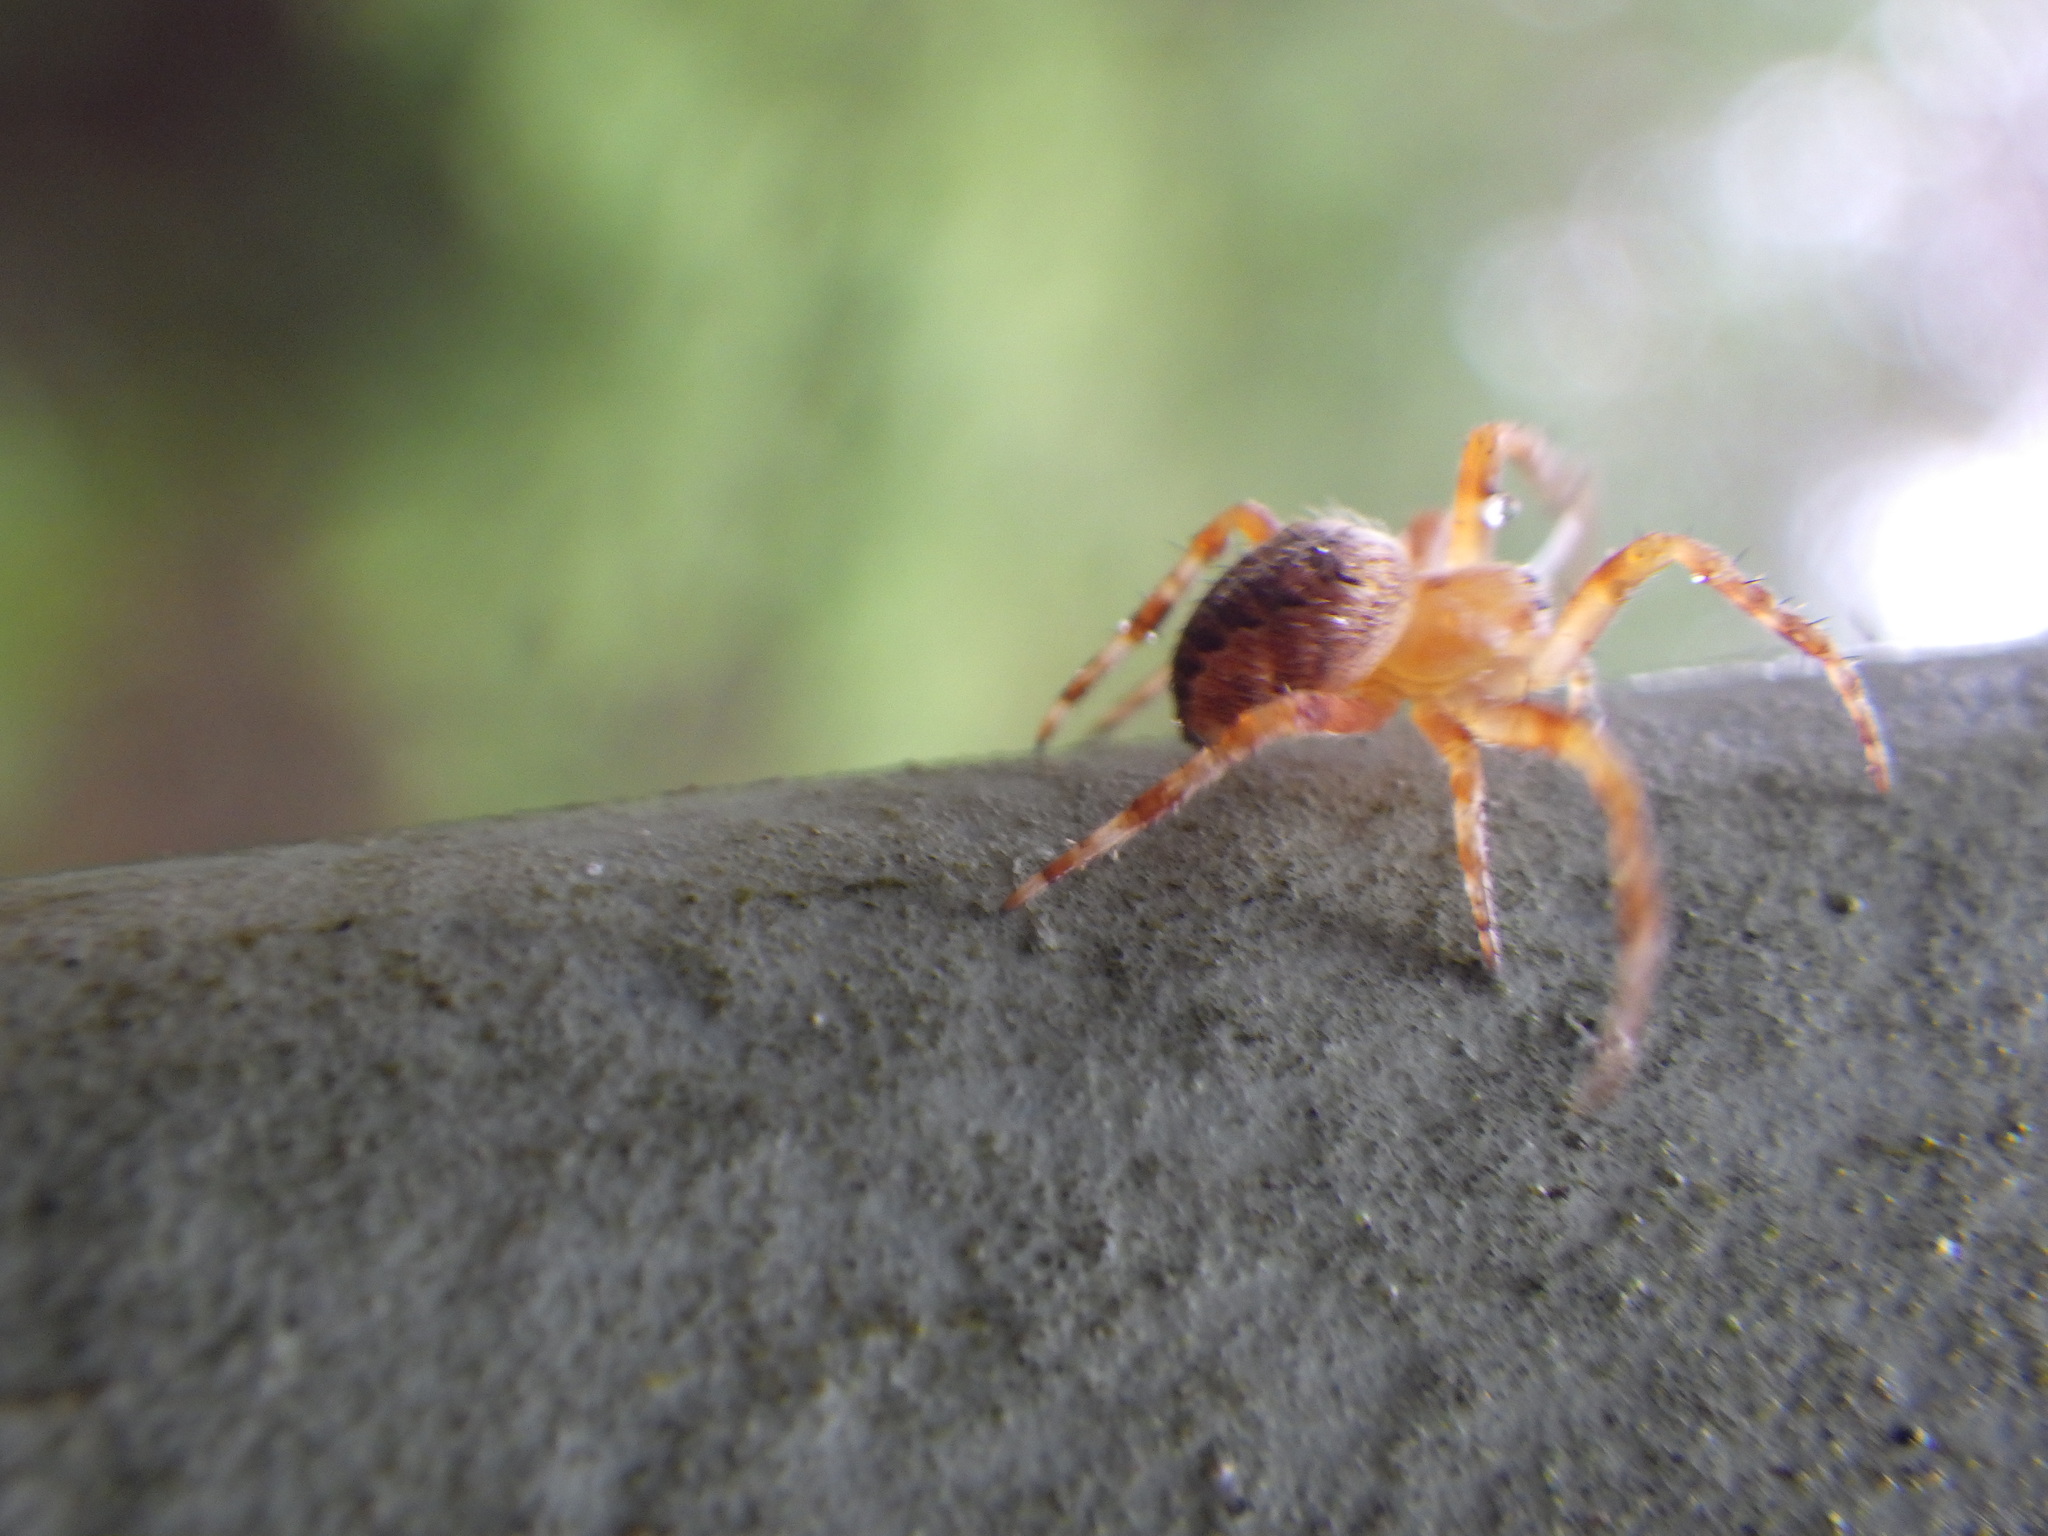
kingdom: Animalia
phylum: Arthropoda
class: Arachnida
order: Araneae
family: Araneidae
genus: Araneus
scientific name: Araneus diadematus
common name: Cross orbweaver
